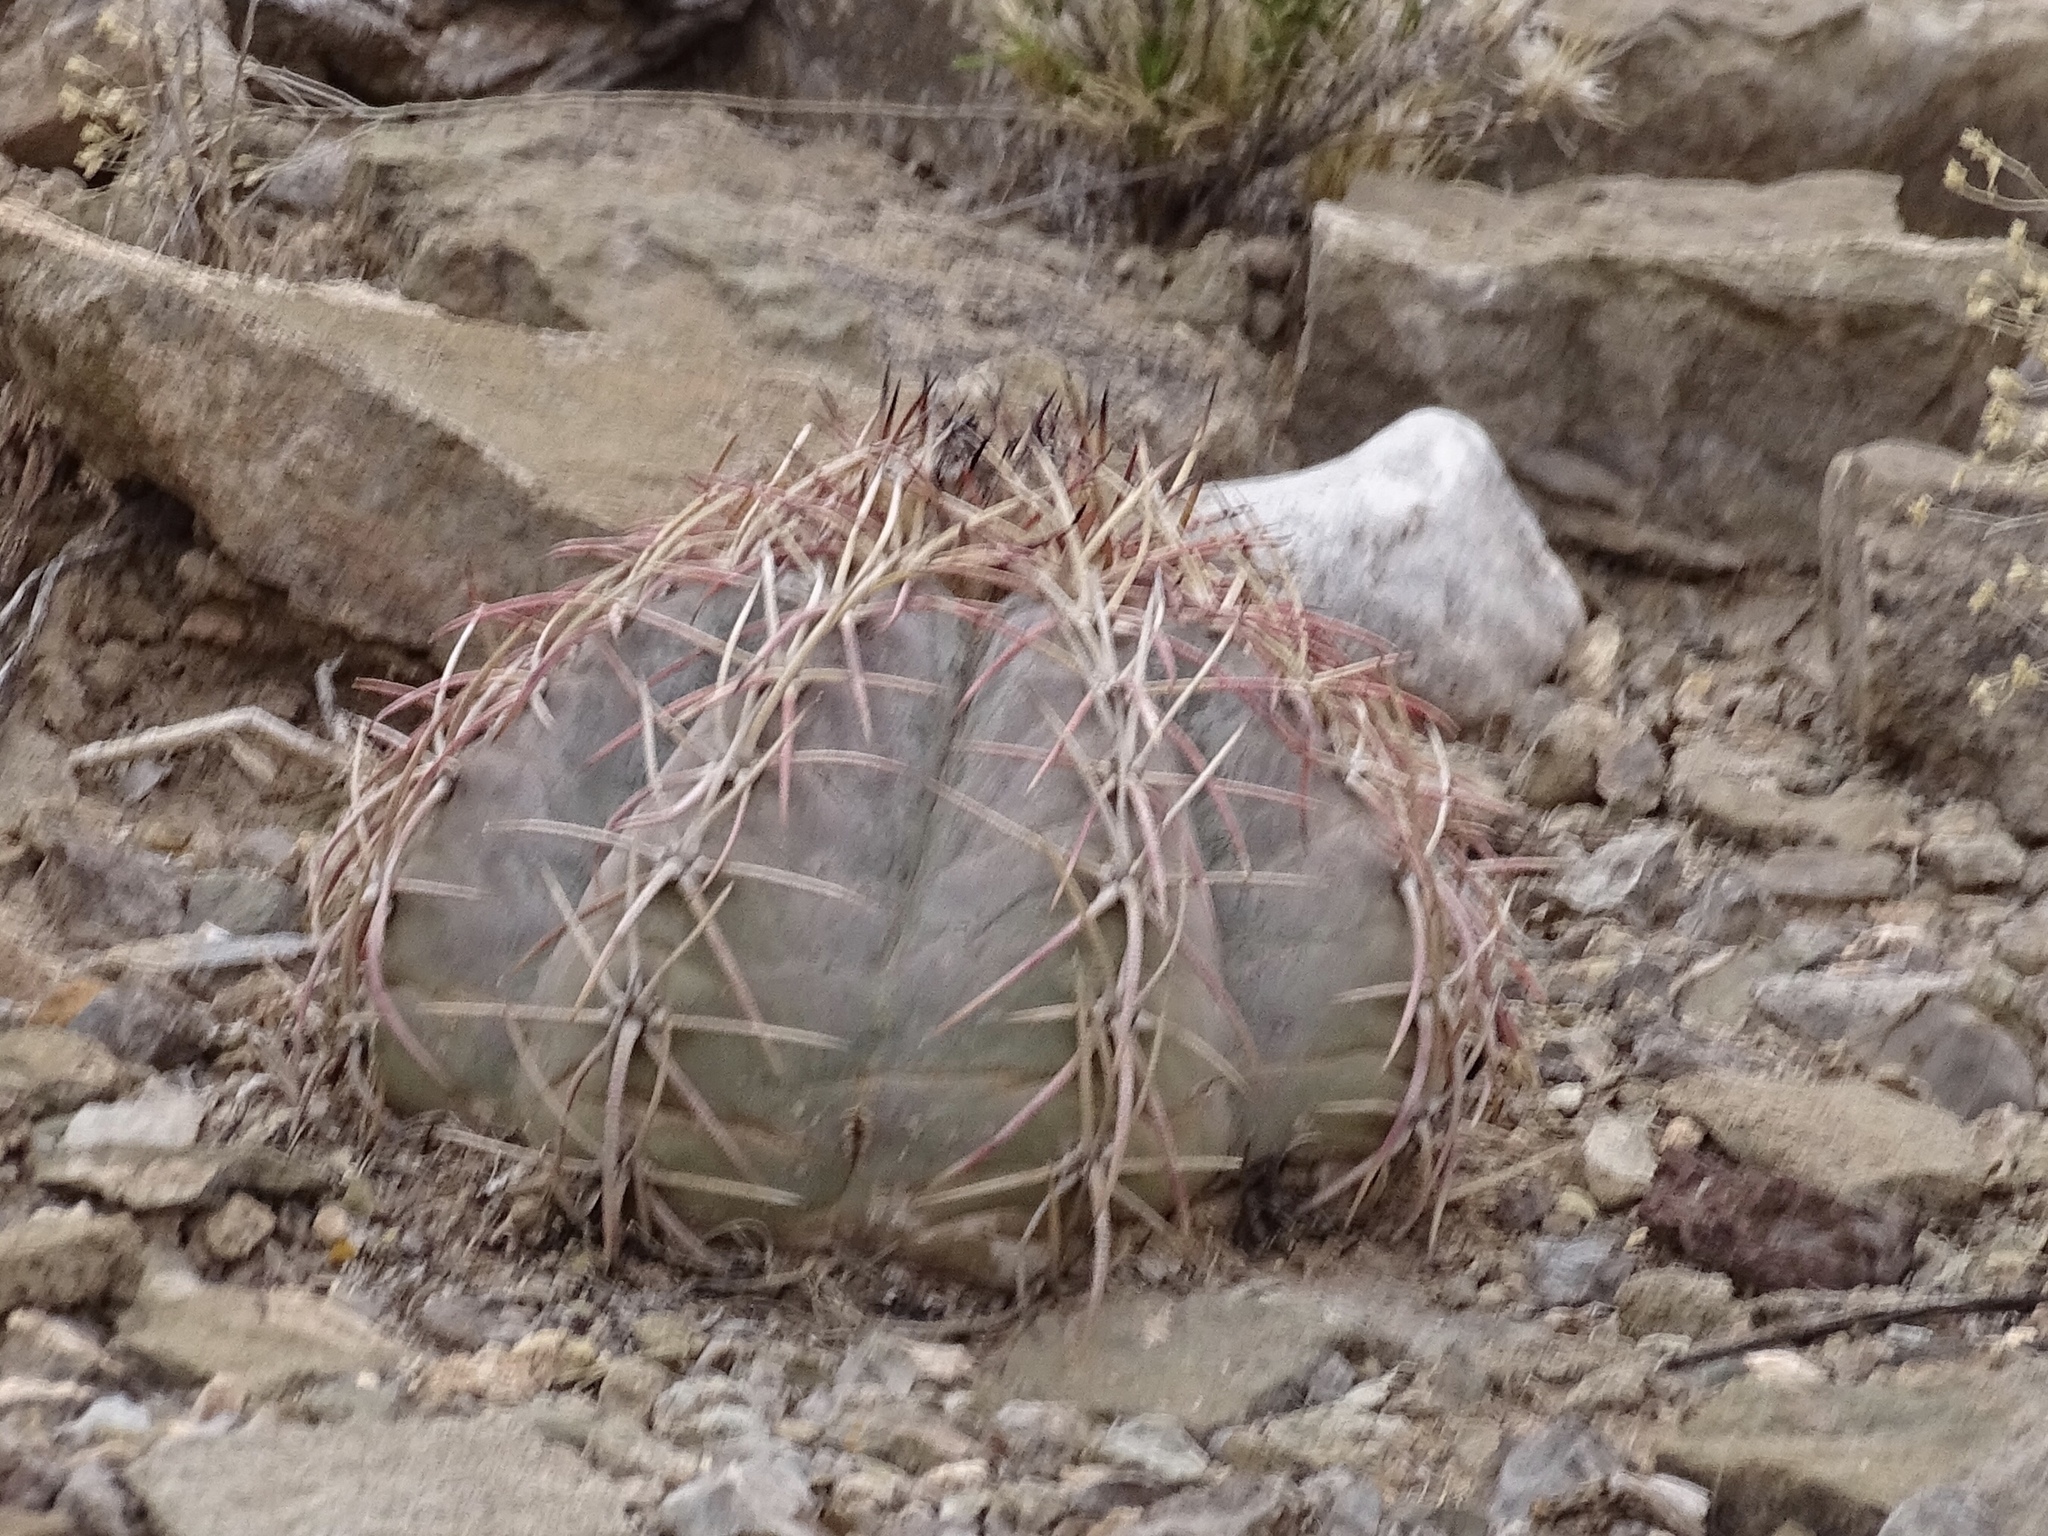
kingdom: Plantae
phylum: Tracheophyta
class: Magnoliopsida
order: Caryophyllales
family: Cactaceae
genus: Echinocactus
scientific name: Echinocactus horizonthalonius
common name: Devilshead
